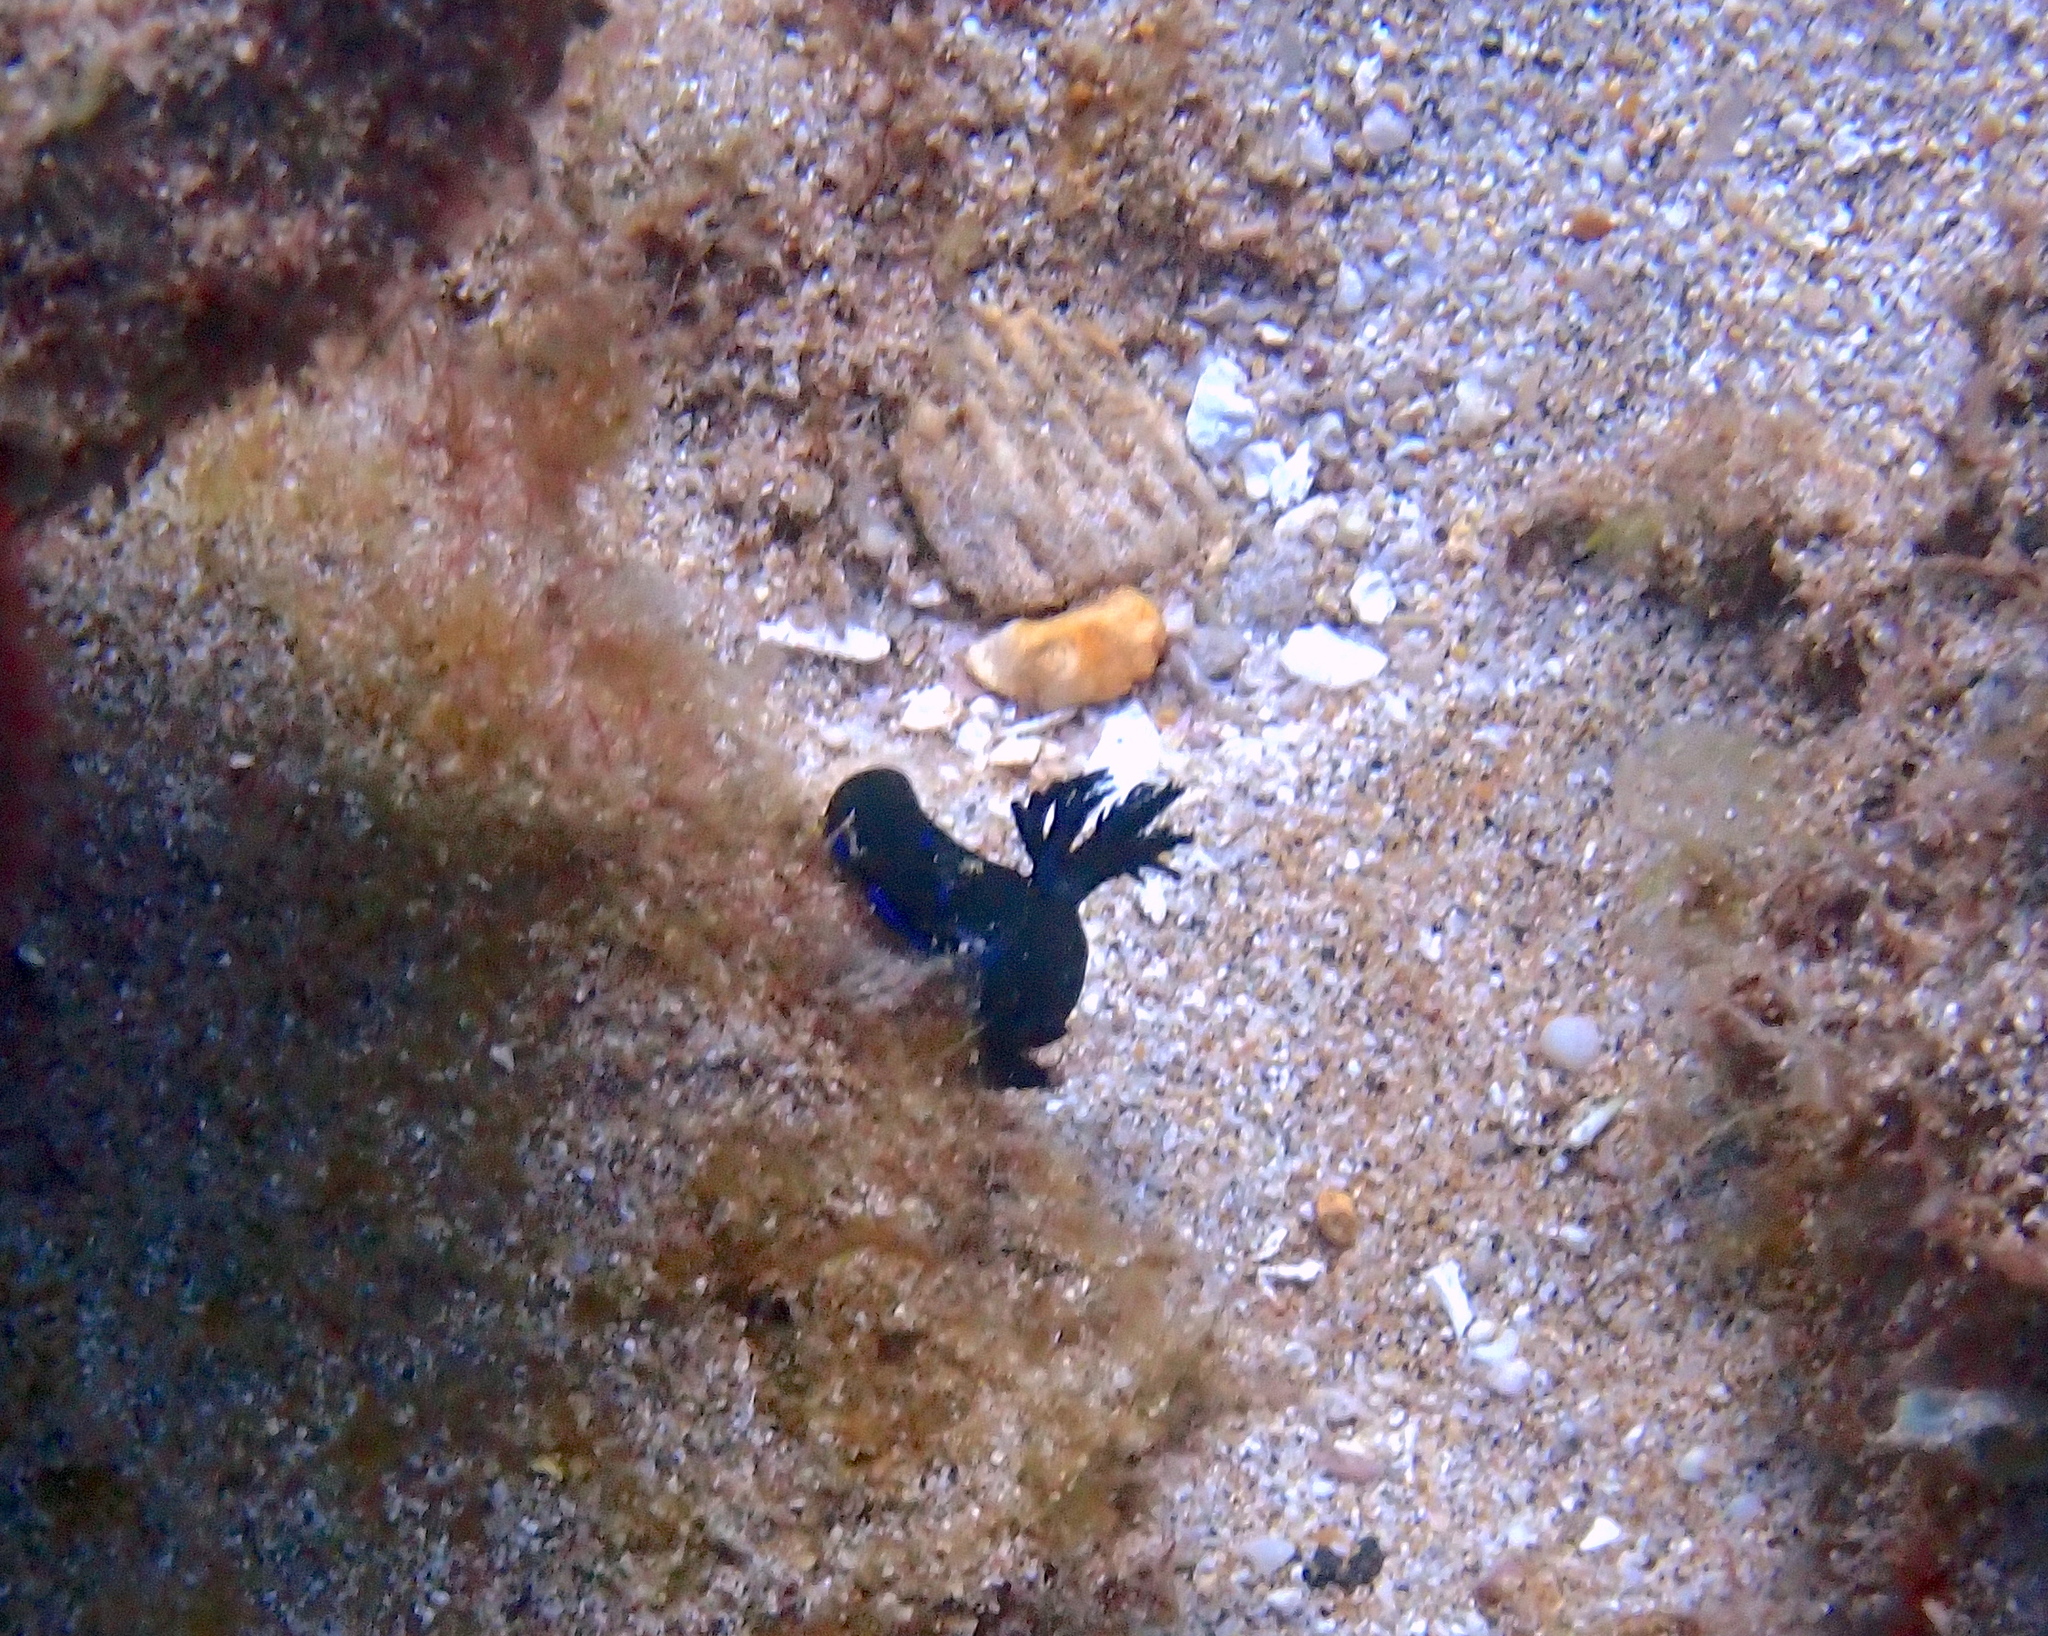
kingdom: Animalia
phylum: Mollusca
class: Gastropoda
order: Nudibranchia
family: Polyceridae
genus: Tambja
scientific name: Tambja morosa
